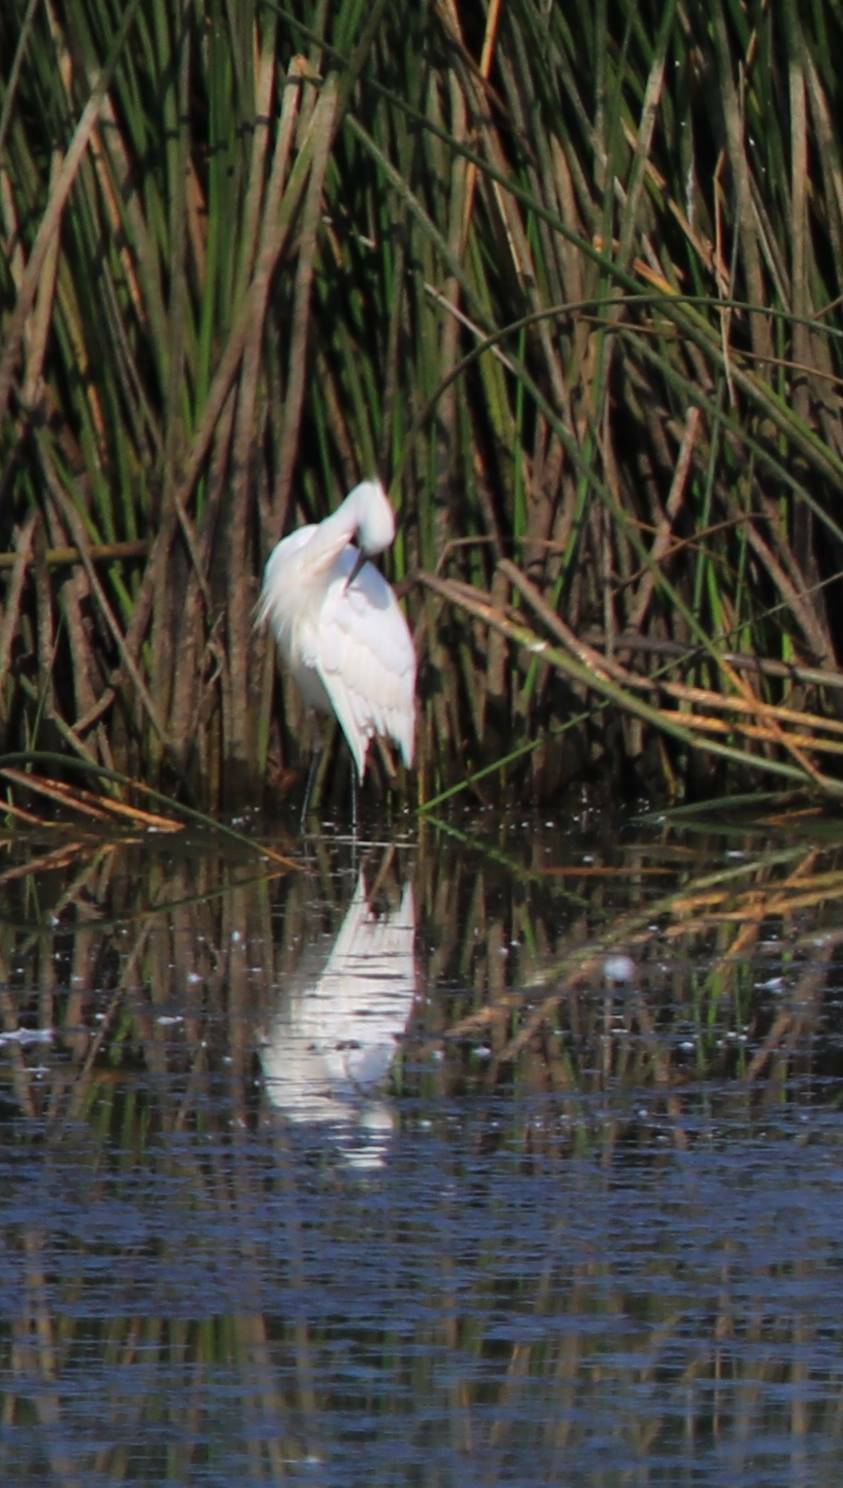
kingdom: Animalia
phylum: Chordata
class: Aves
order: Pelecaniformes
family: Ardeidae
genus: Egretta
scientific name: Egretta garzetta
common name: Little egret
